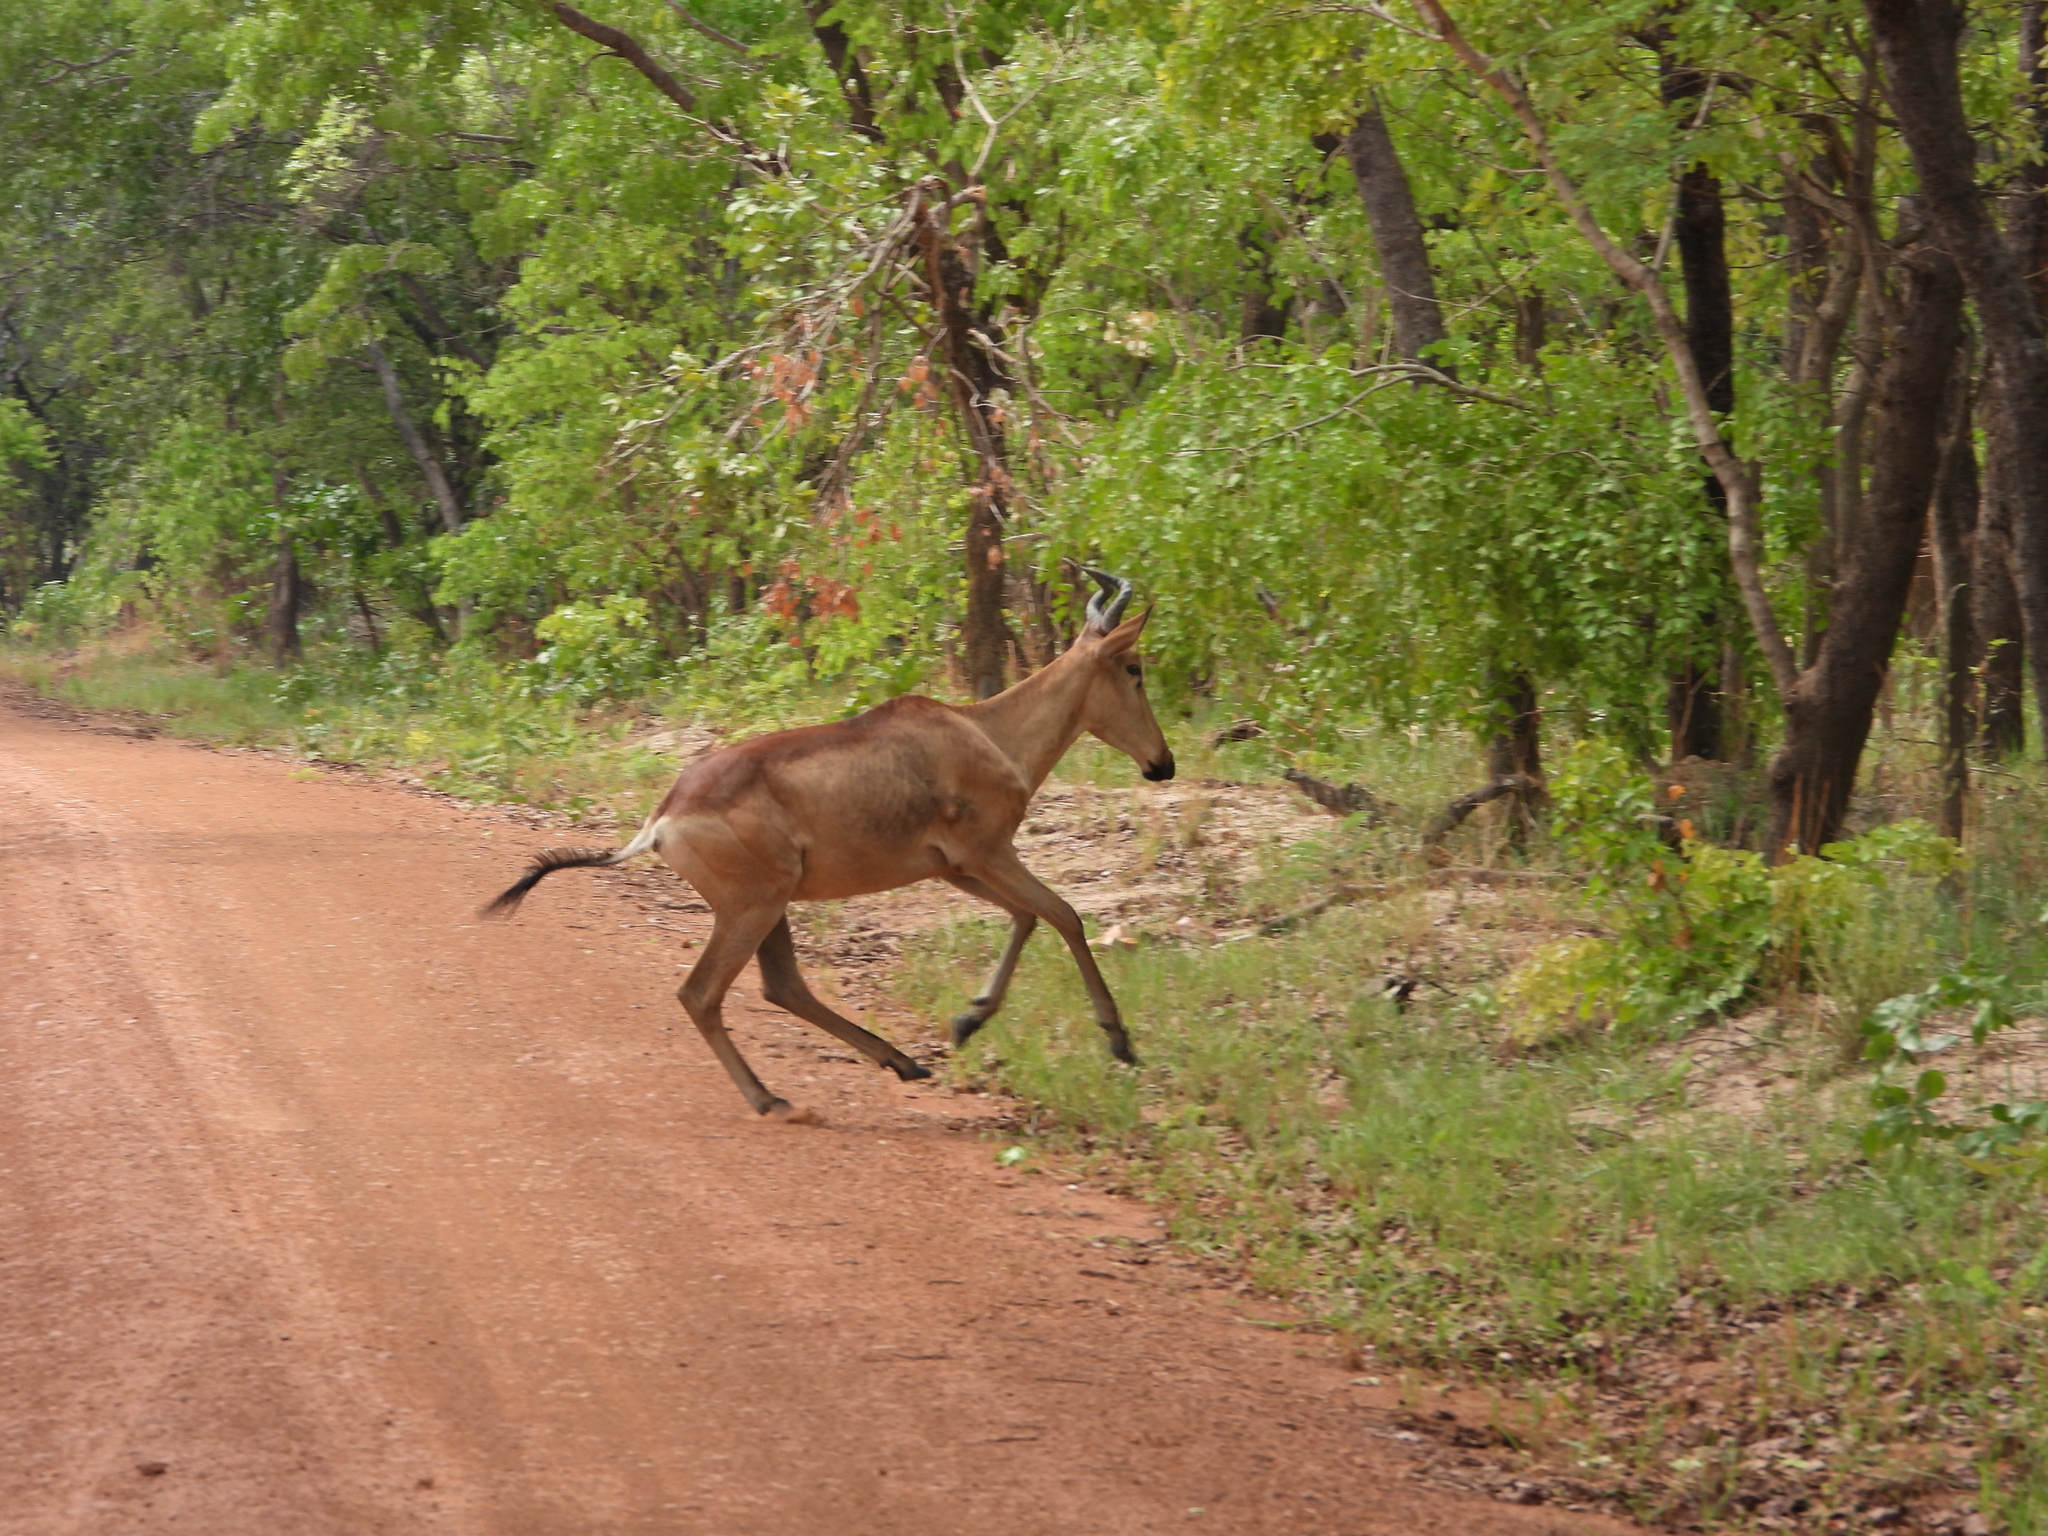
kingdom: Animalia
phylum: Chordata
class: Mammalia
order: Artiodactyla
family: Bovidae
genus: Alcelaphus
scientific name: Alcelaphus buselaphus
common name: Hartebeest
